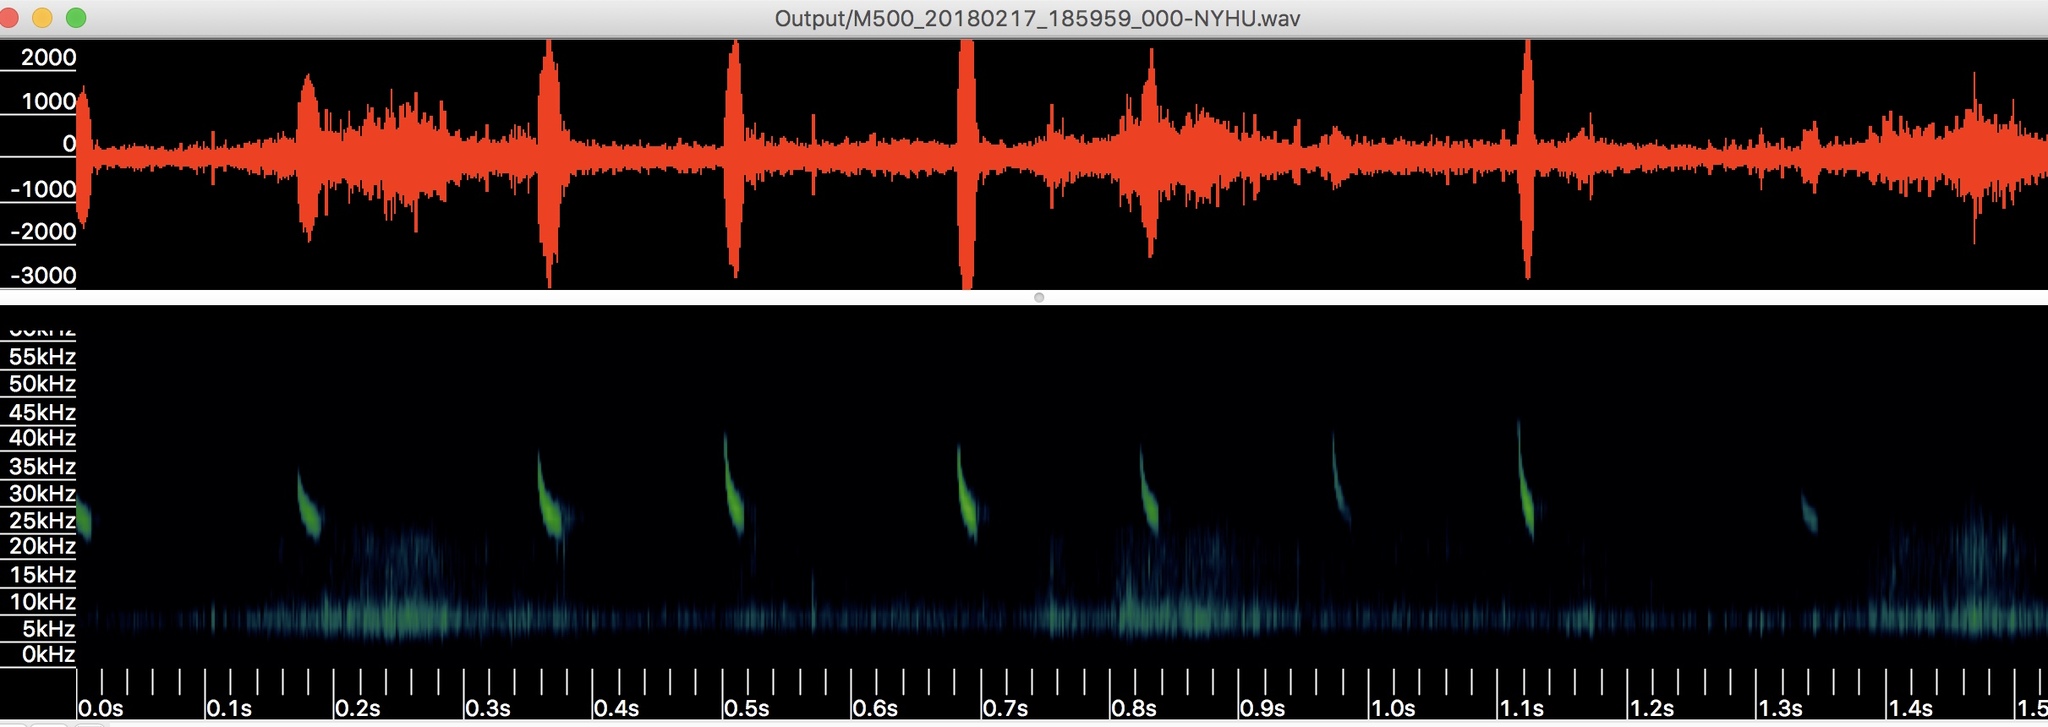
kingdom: Animalia
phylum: Chordata
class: Mammalia
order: Chiroptera
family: Vespertilionidae
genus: Nycticeius
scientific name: Nycticeius humeralis
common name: Evening bat
